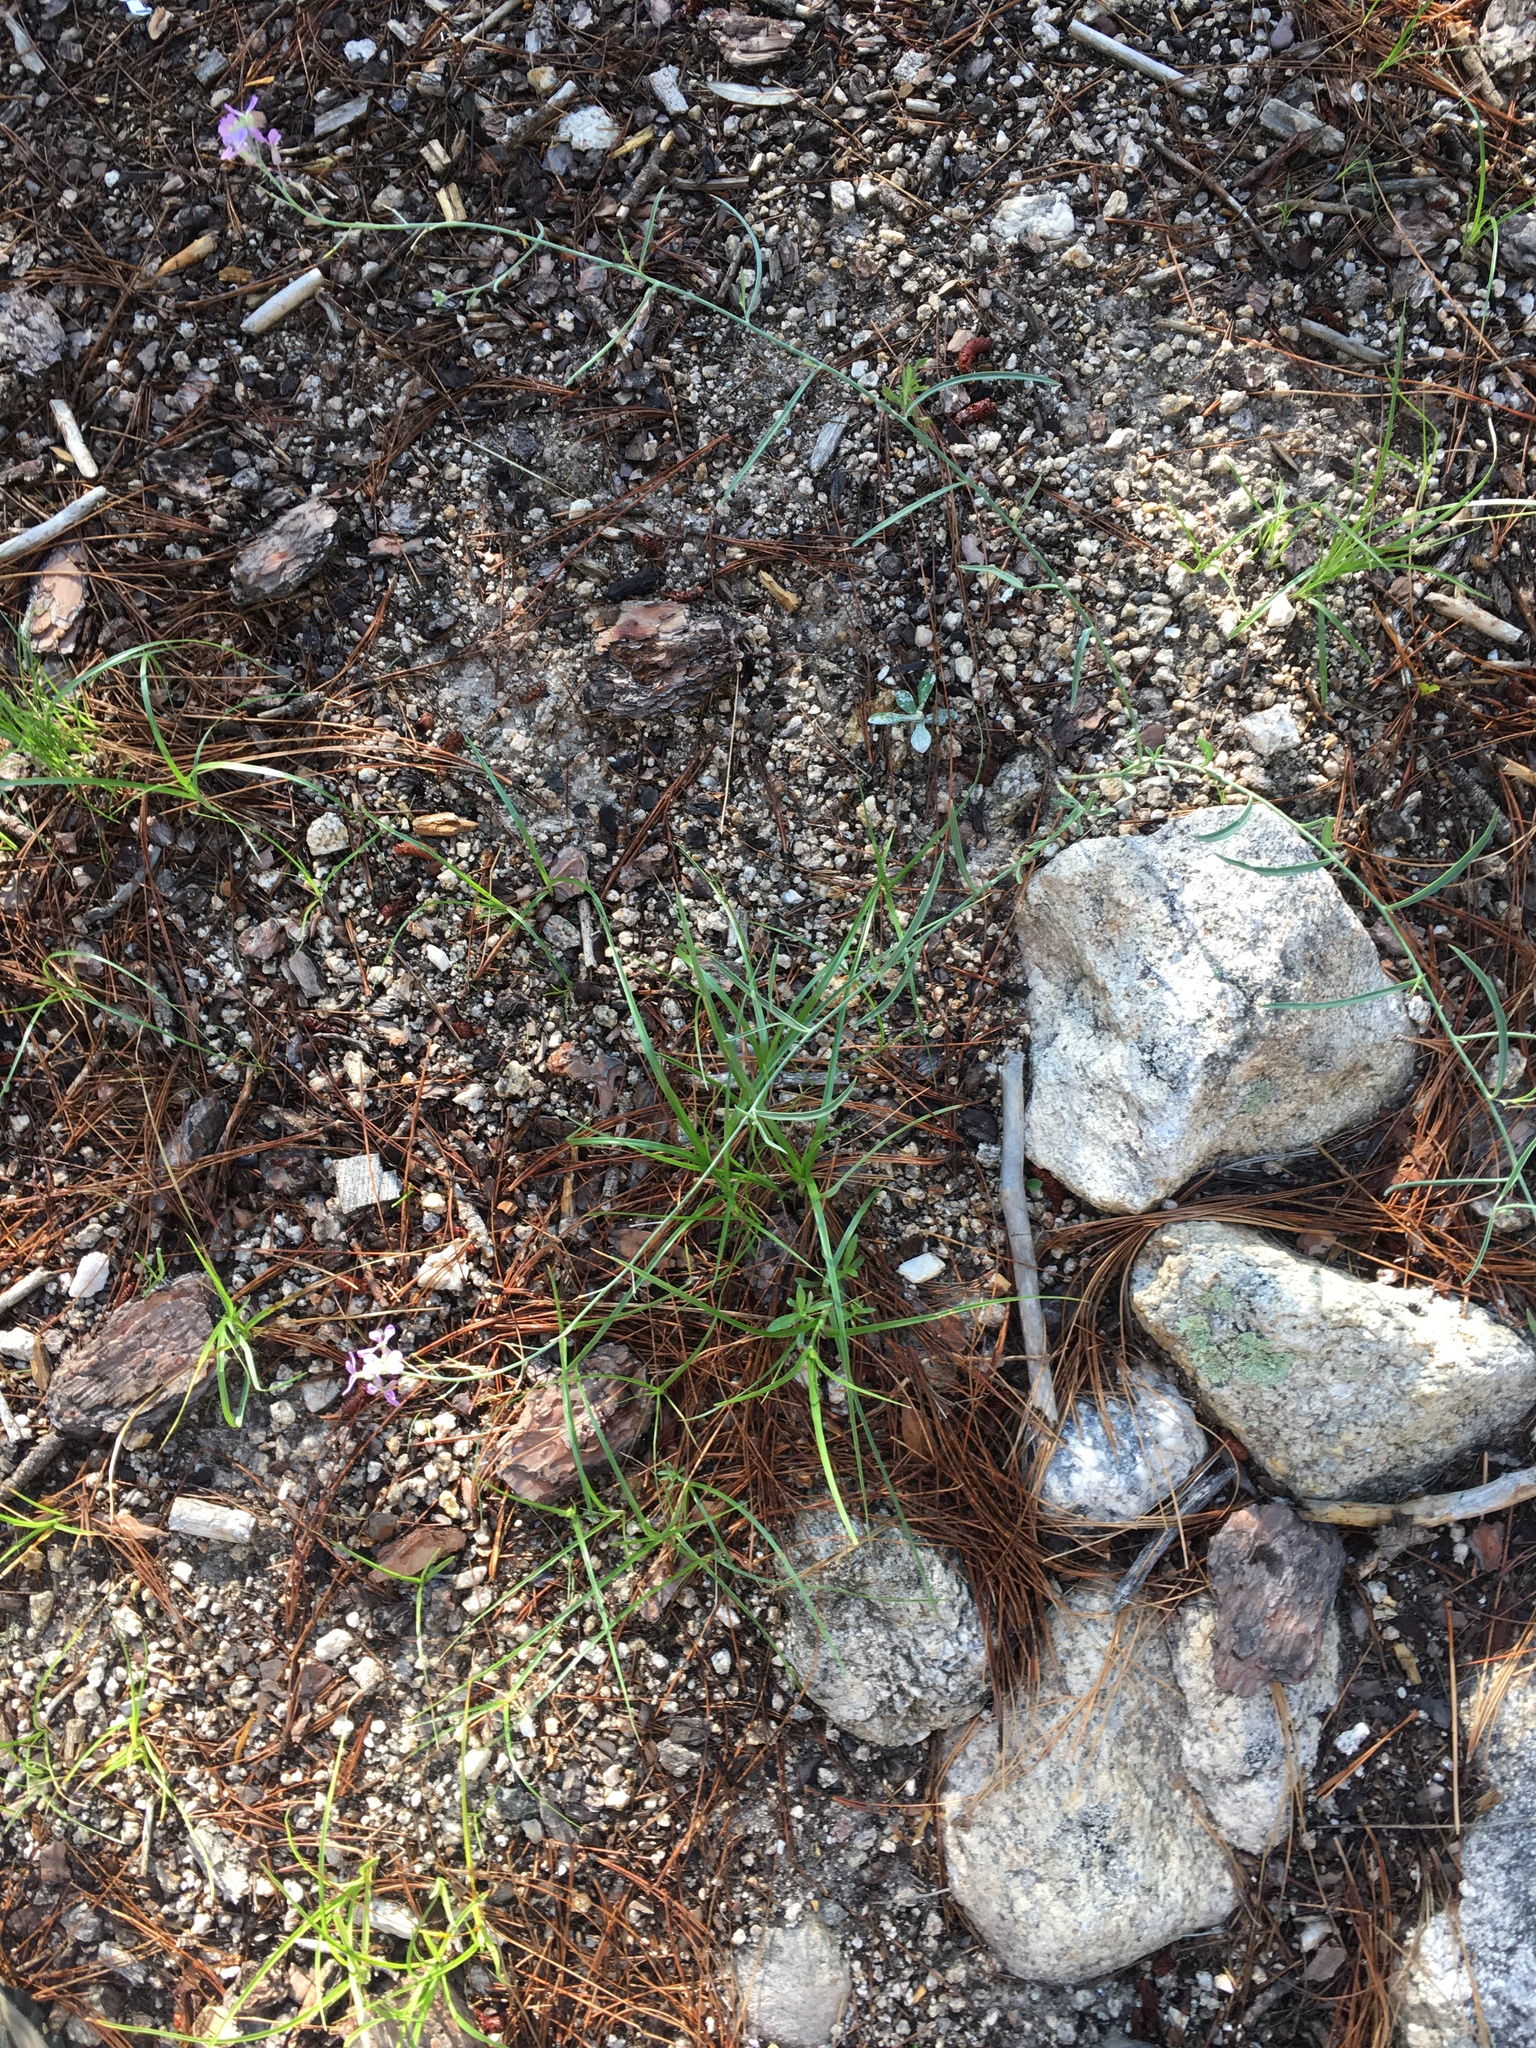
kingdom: Plantae
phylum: Tracheophyta
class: Magnoliopsida
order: Brassicales
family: Brassicaceae
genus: Hesperidanthus
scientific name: Hesperidanthus linearifolius
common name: Slim-leaf plains mustard
